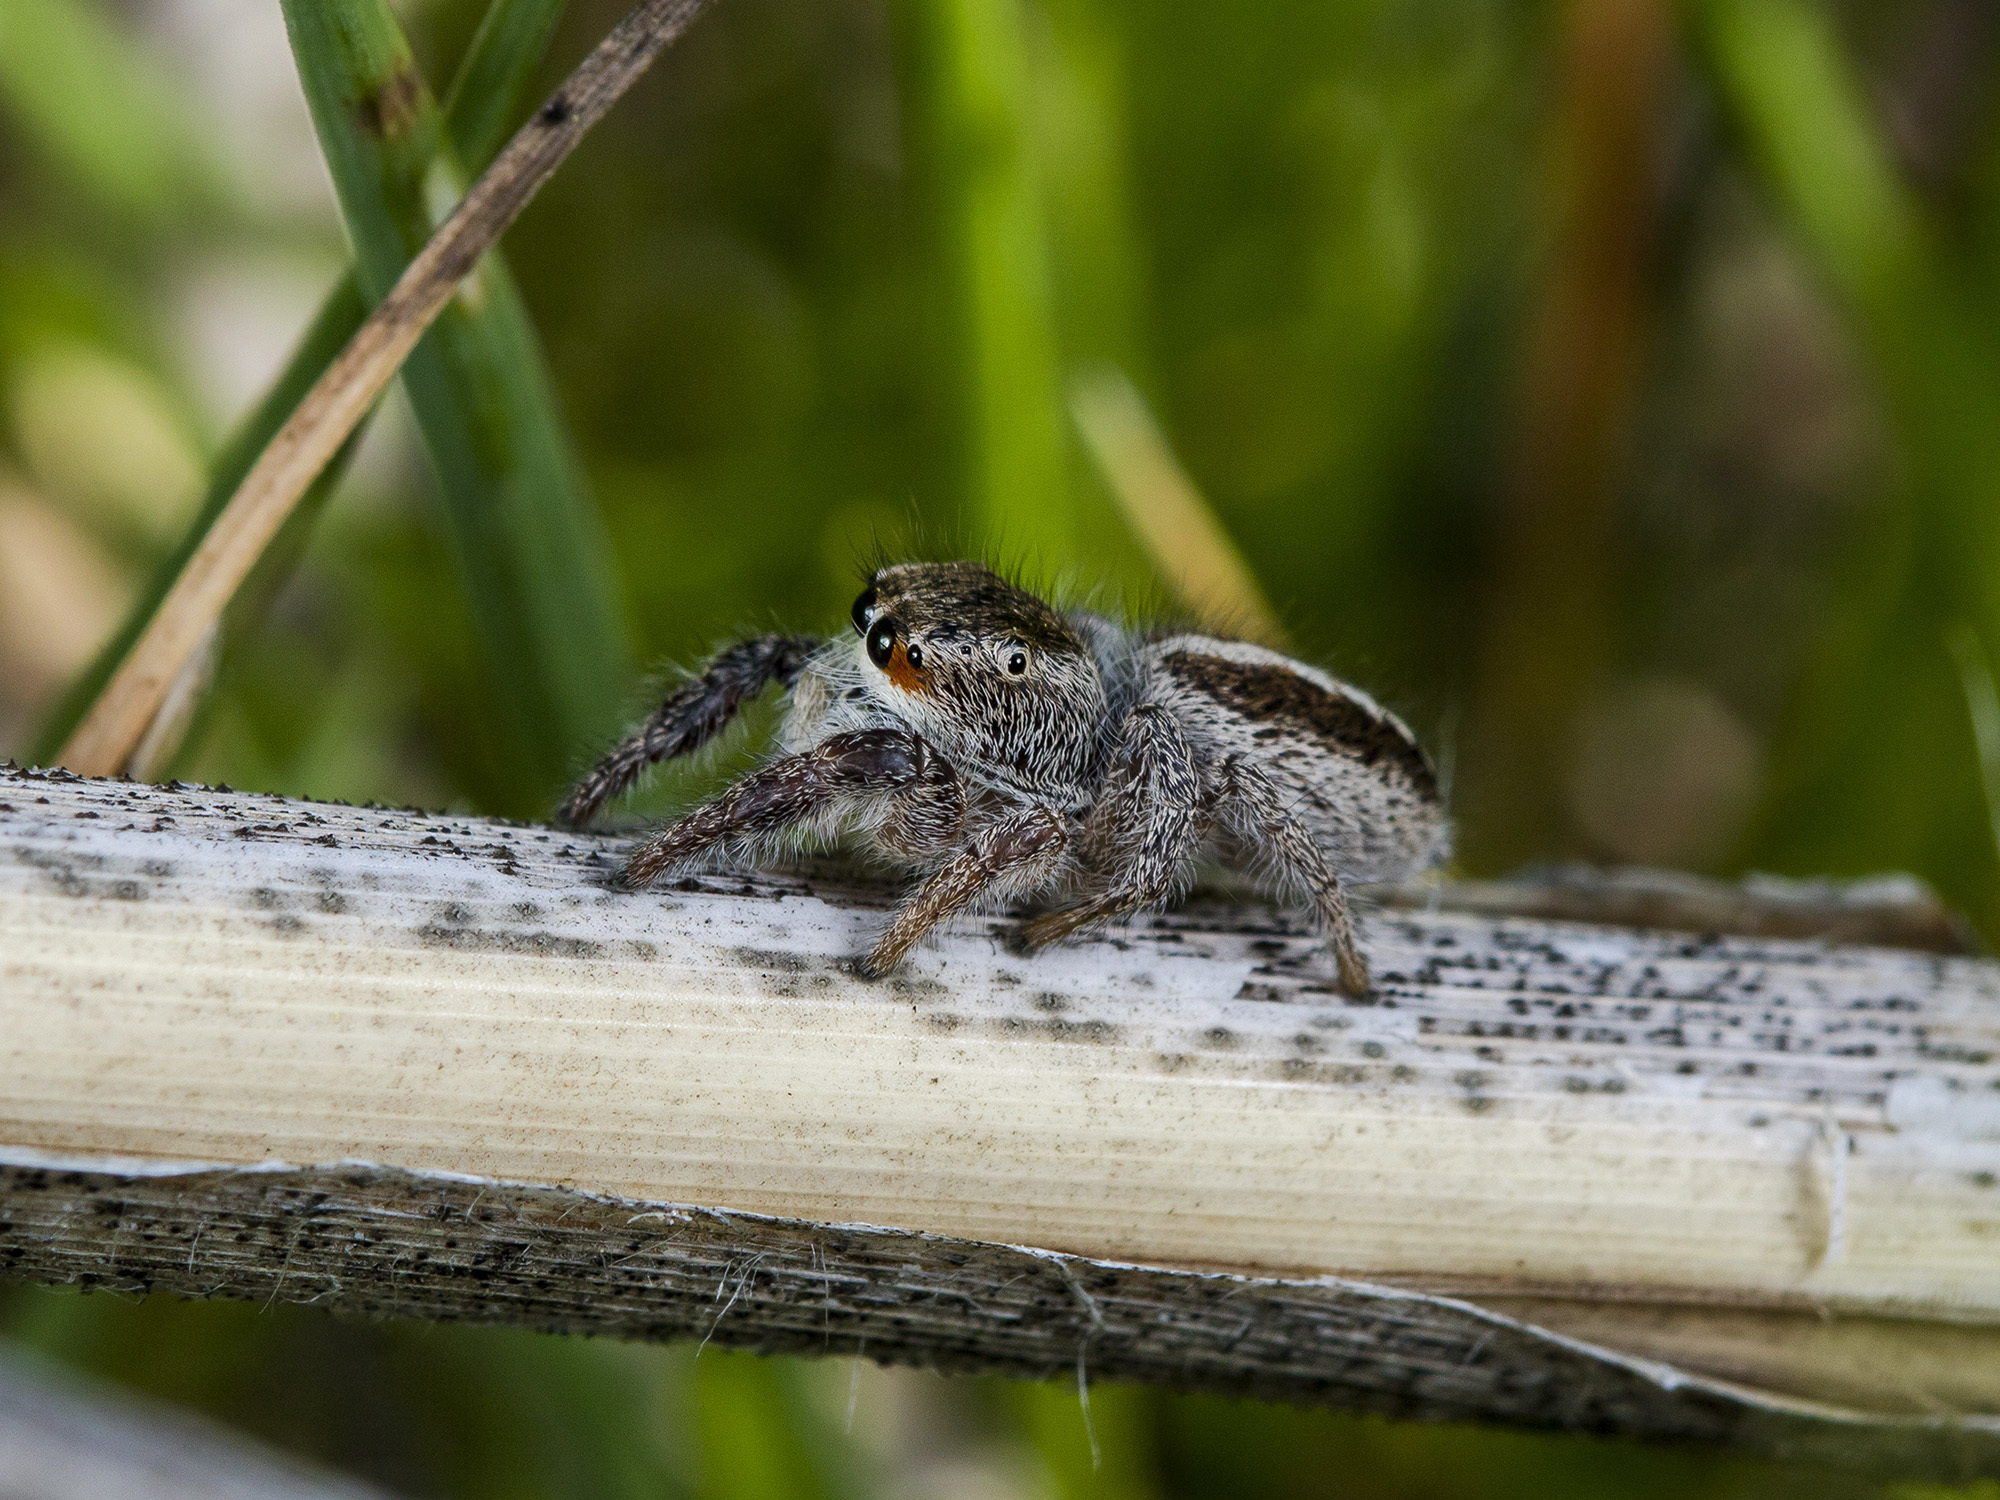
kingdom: Animalia
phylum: Arthropoda
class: Arachnida
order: Araneae
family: Salticidae
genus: Pellenes
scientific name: Pellenes seriatus
